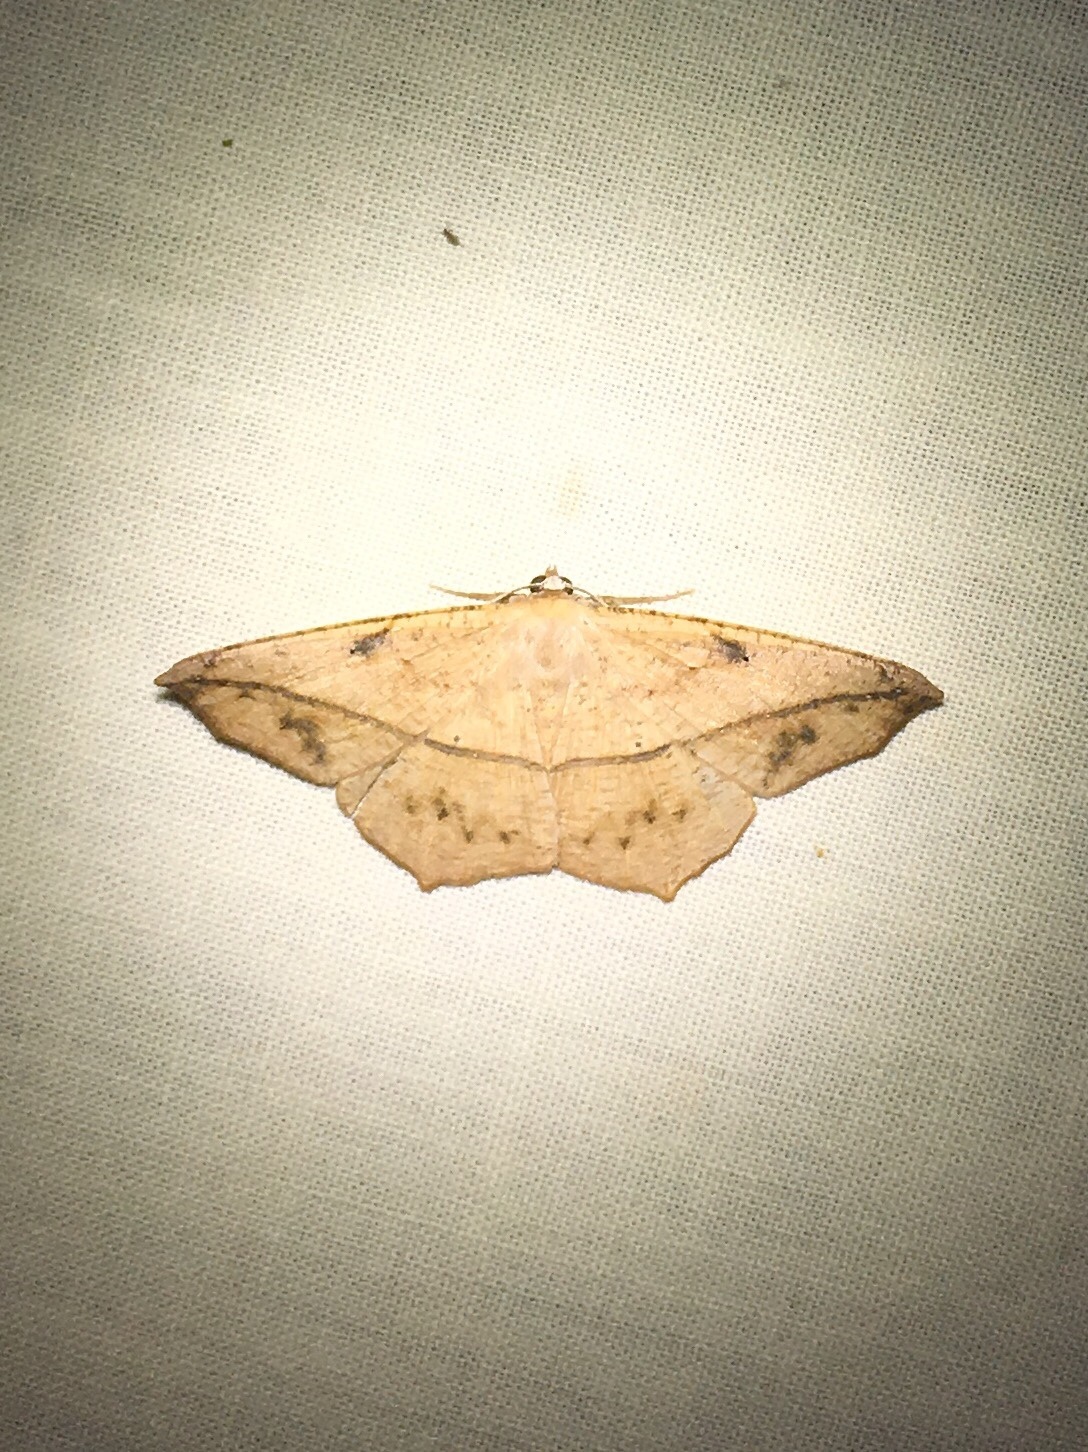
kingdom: Animalia
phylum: Arthropoda
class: Insecta
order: Lepidoptera
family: Geometridae
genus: Prochoerodes
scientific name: Prochoerodes lineola
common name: Large maple spanworm
